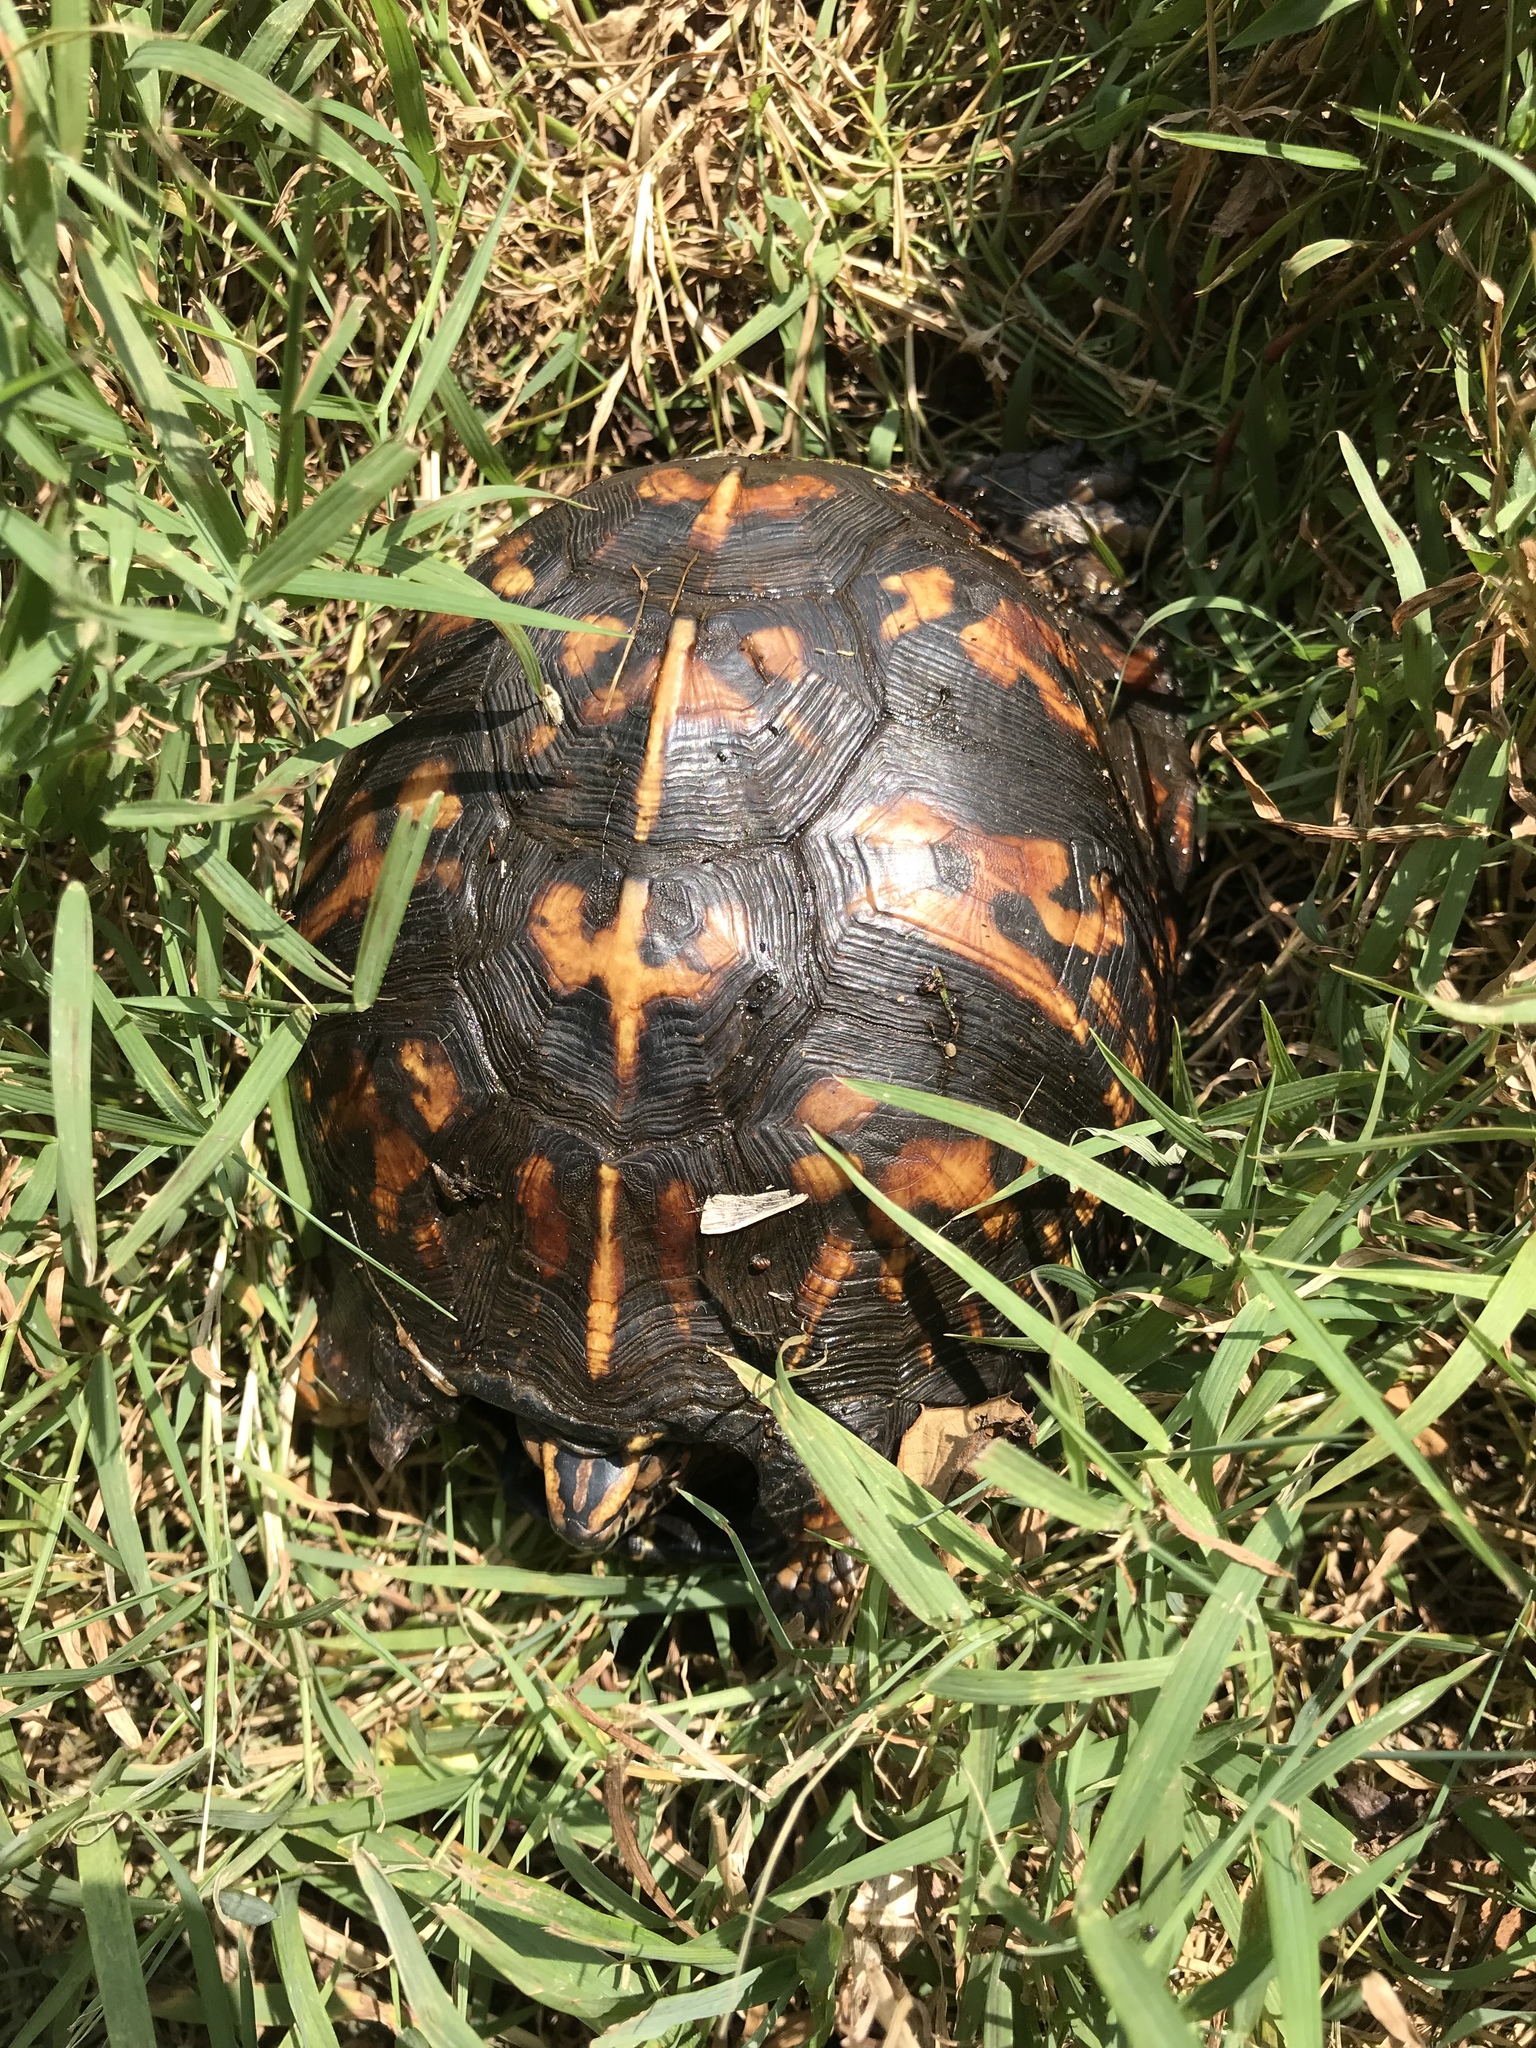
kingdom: Animalia
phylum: Chordata
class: Testudines
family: Emydidae
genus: Terrapene
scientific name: Terrapene carolina
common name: Common box turtle
